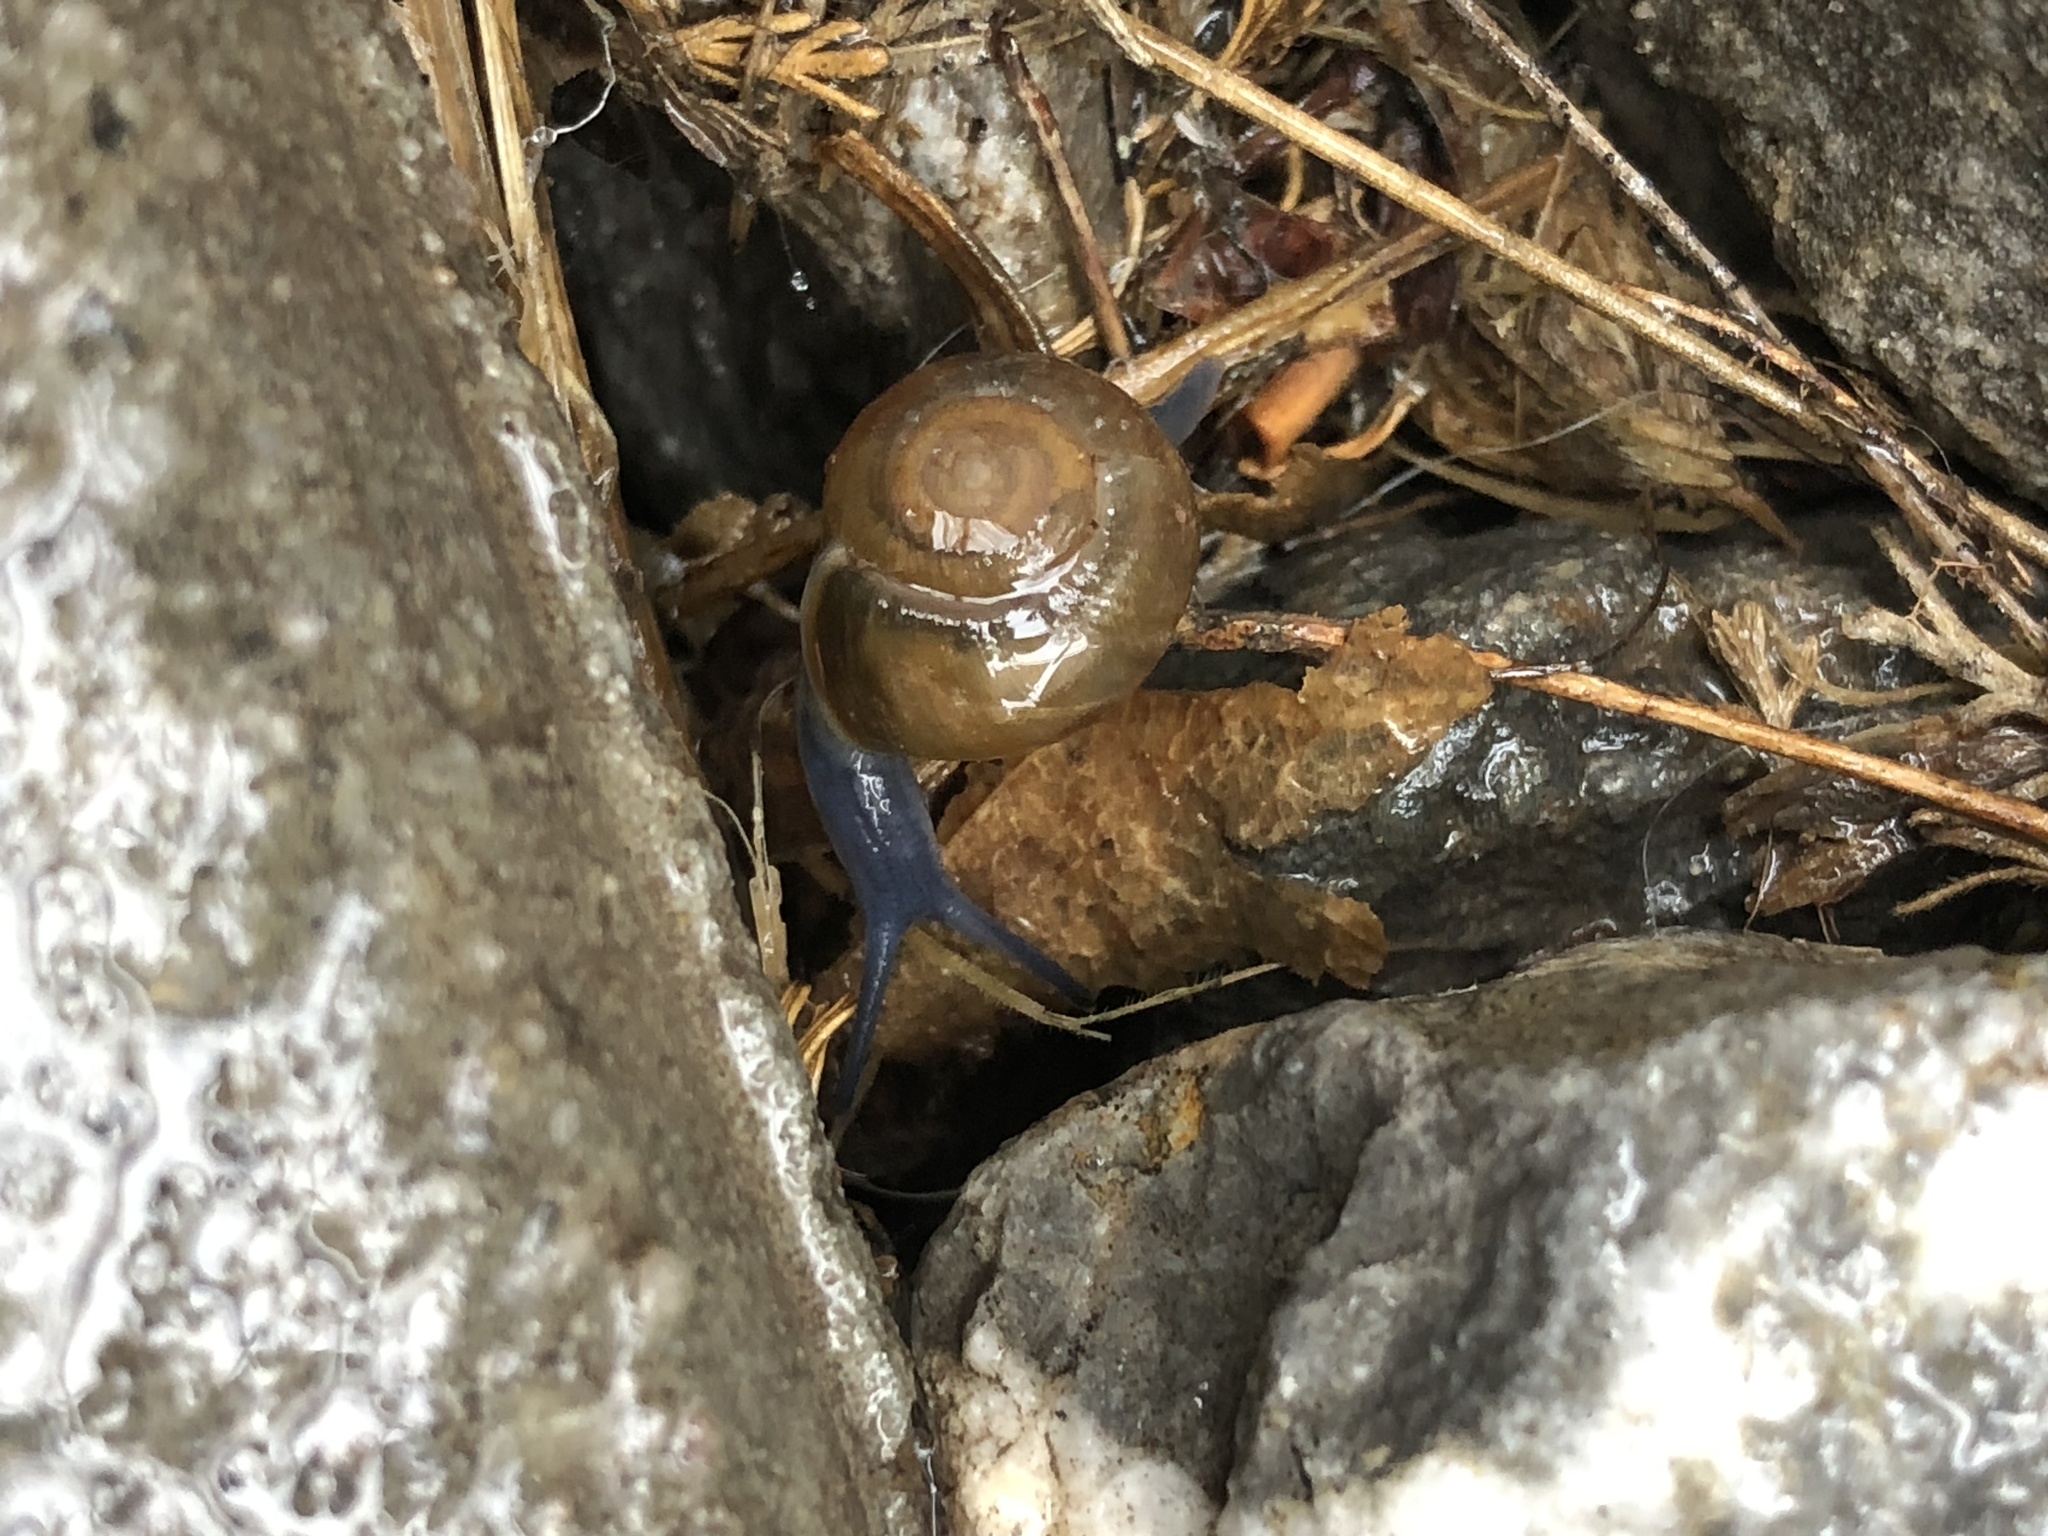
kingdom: Animalia
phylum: Mollusca
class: Gastropoda
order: Stylommatophora
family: Oxychilidae
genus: Oxychilus
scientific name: Oxychilus draparnaudi
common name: Draparnaud's glass snail
